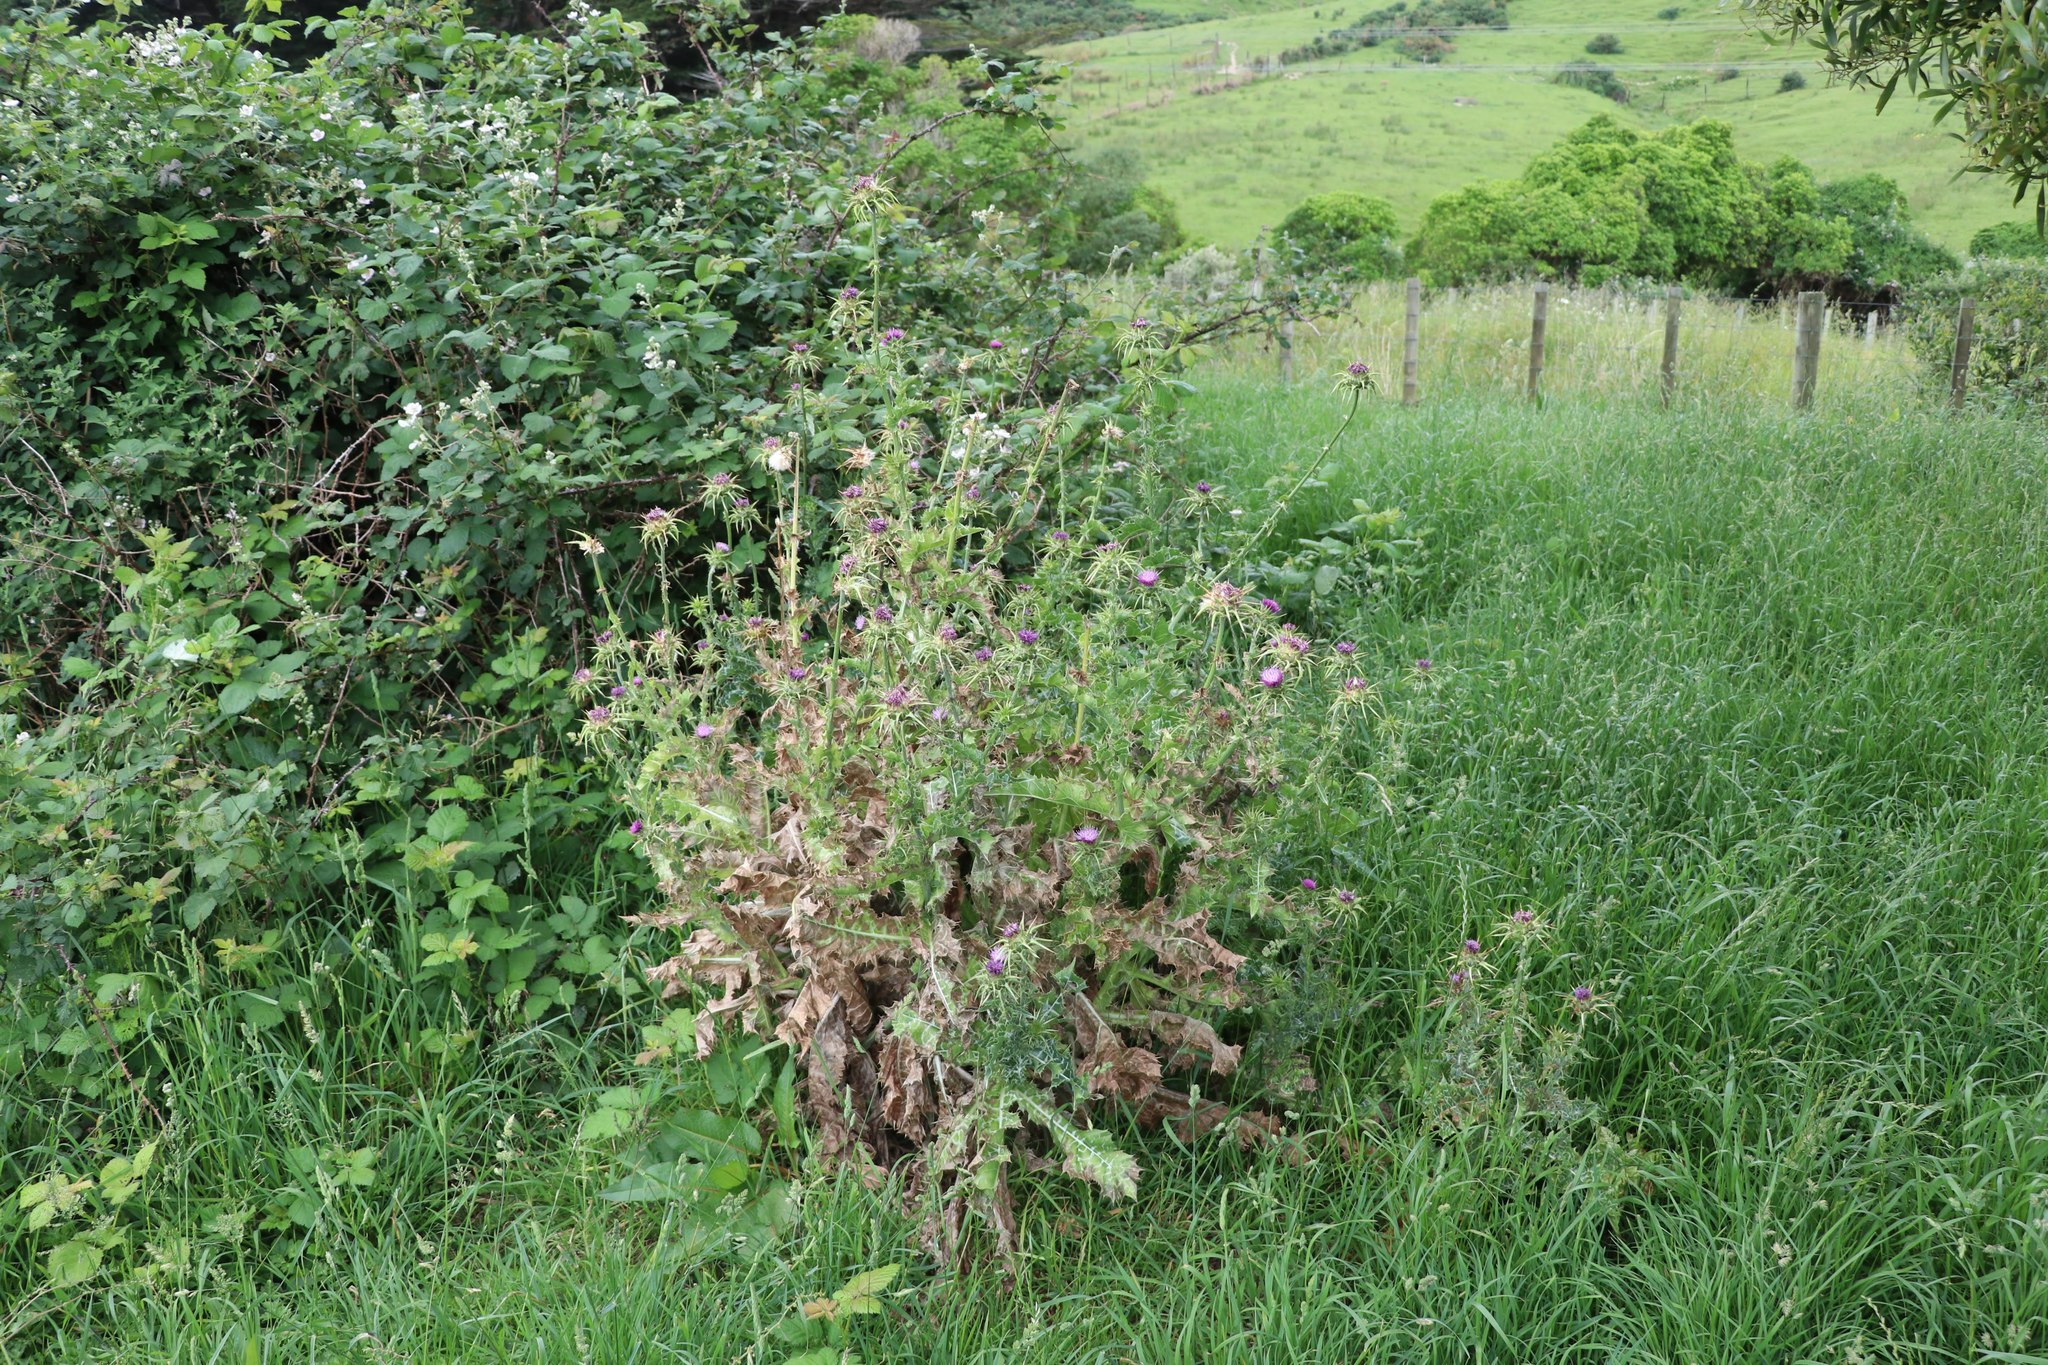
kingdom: Plantae
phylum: Tracheophyta
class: Magnoliopsida
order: Asterales
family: Asteraceae
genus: Silybum
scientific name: Silybum marianum
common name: Milk thistle
